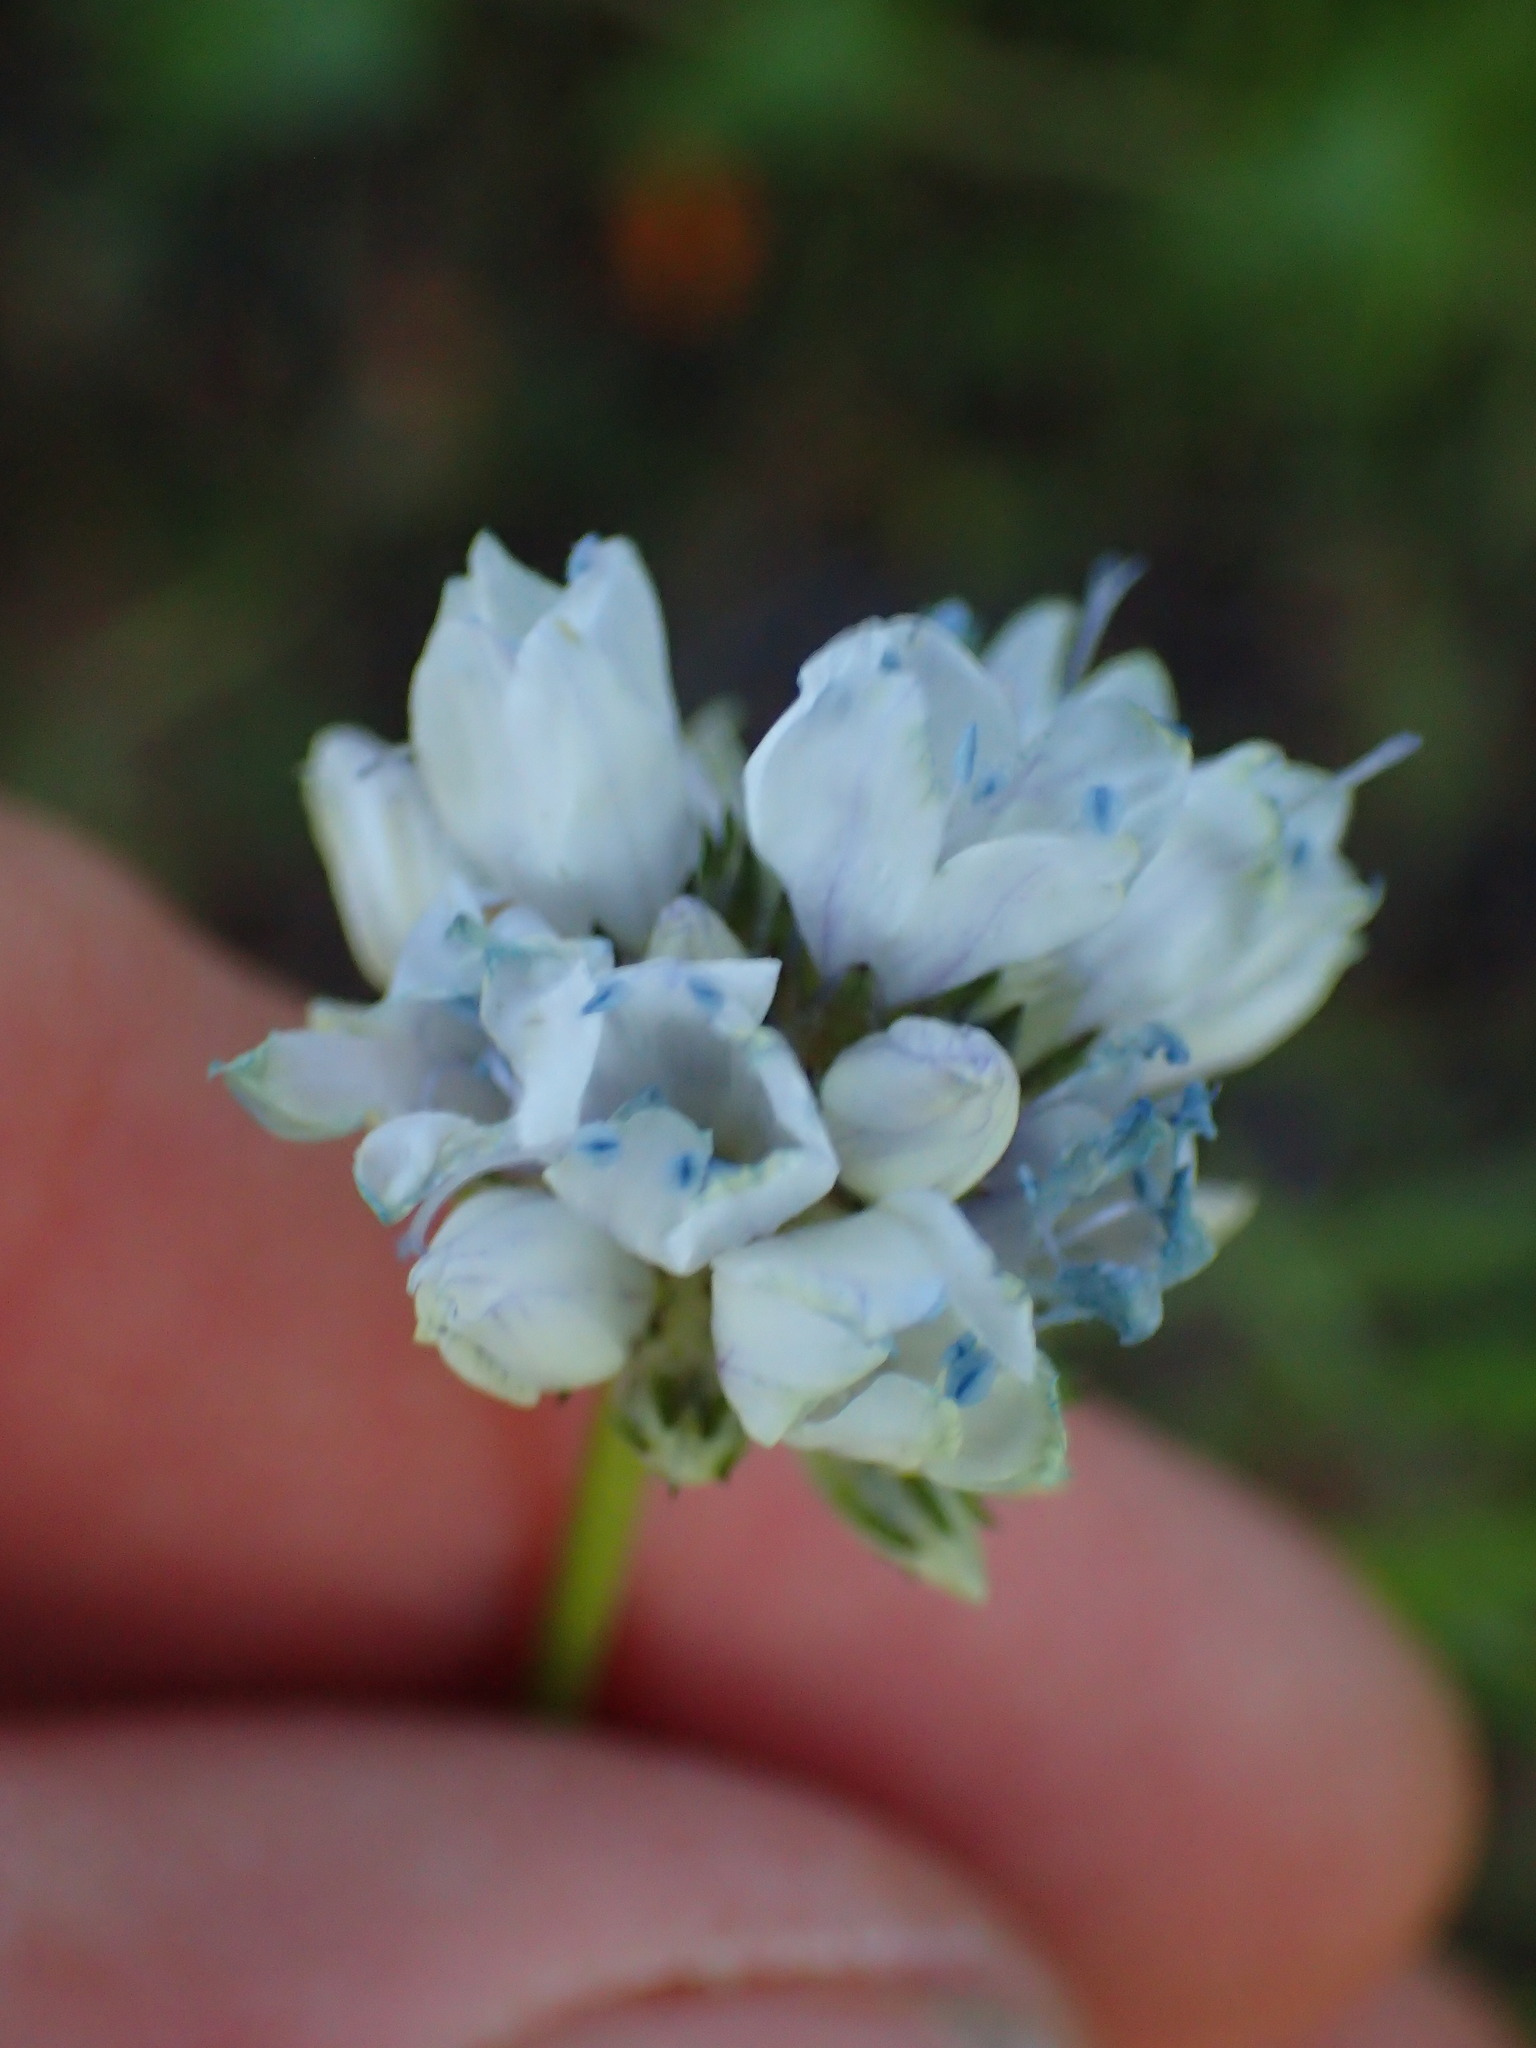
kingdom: Plantae
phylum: Tracheophyta
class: Magnoliopsida
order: Ericales
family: Polemoniaceae
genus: Gilia
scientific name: Gilia capitata
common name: Bluehead gilia
